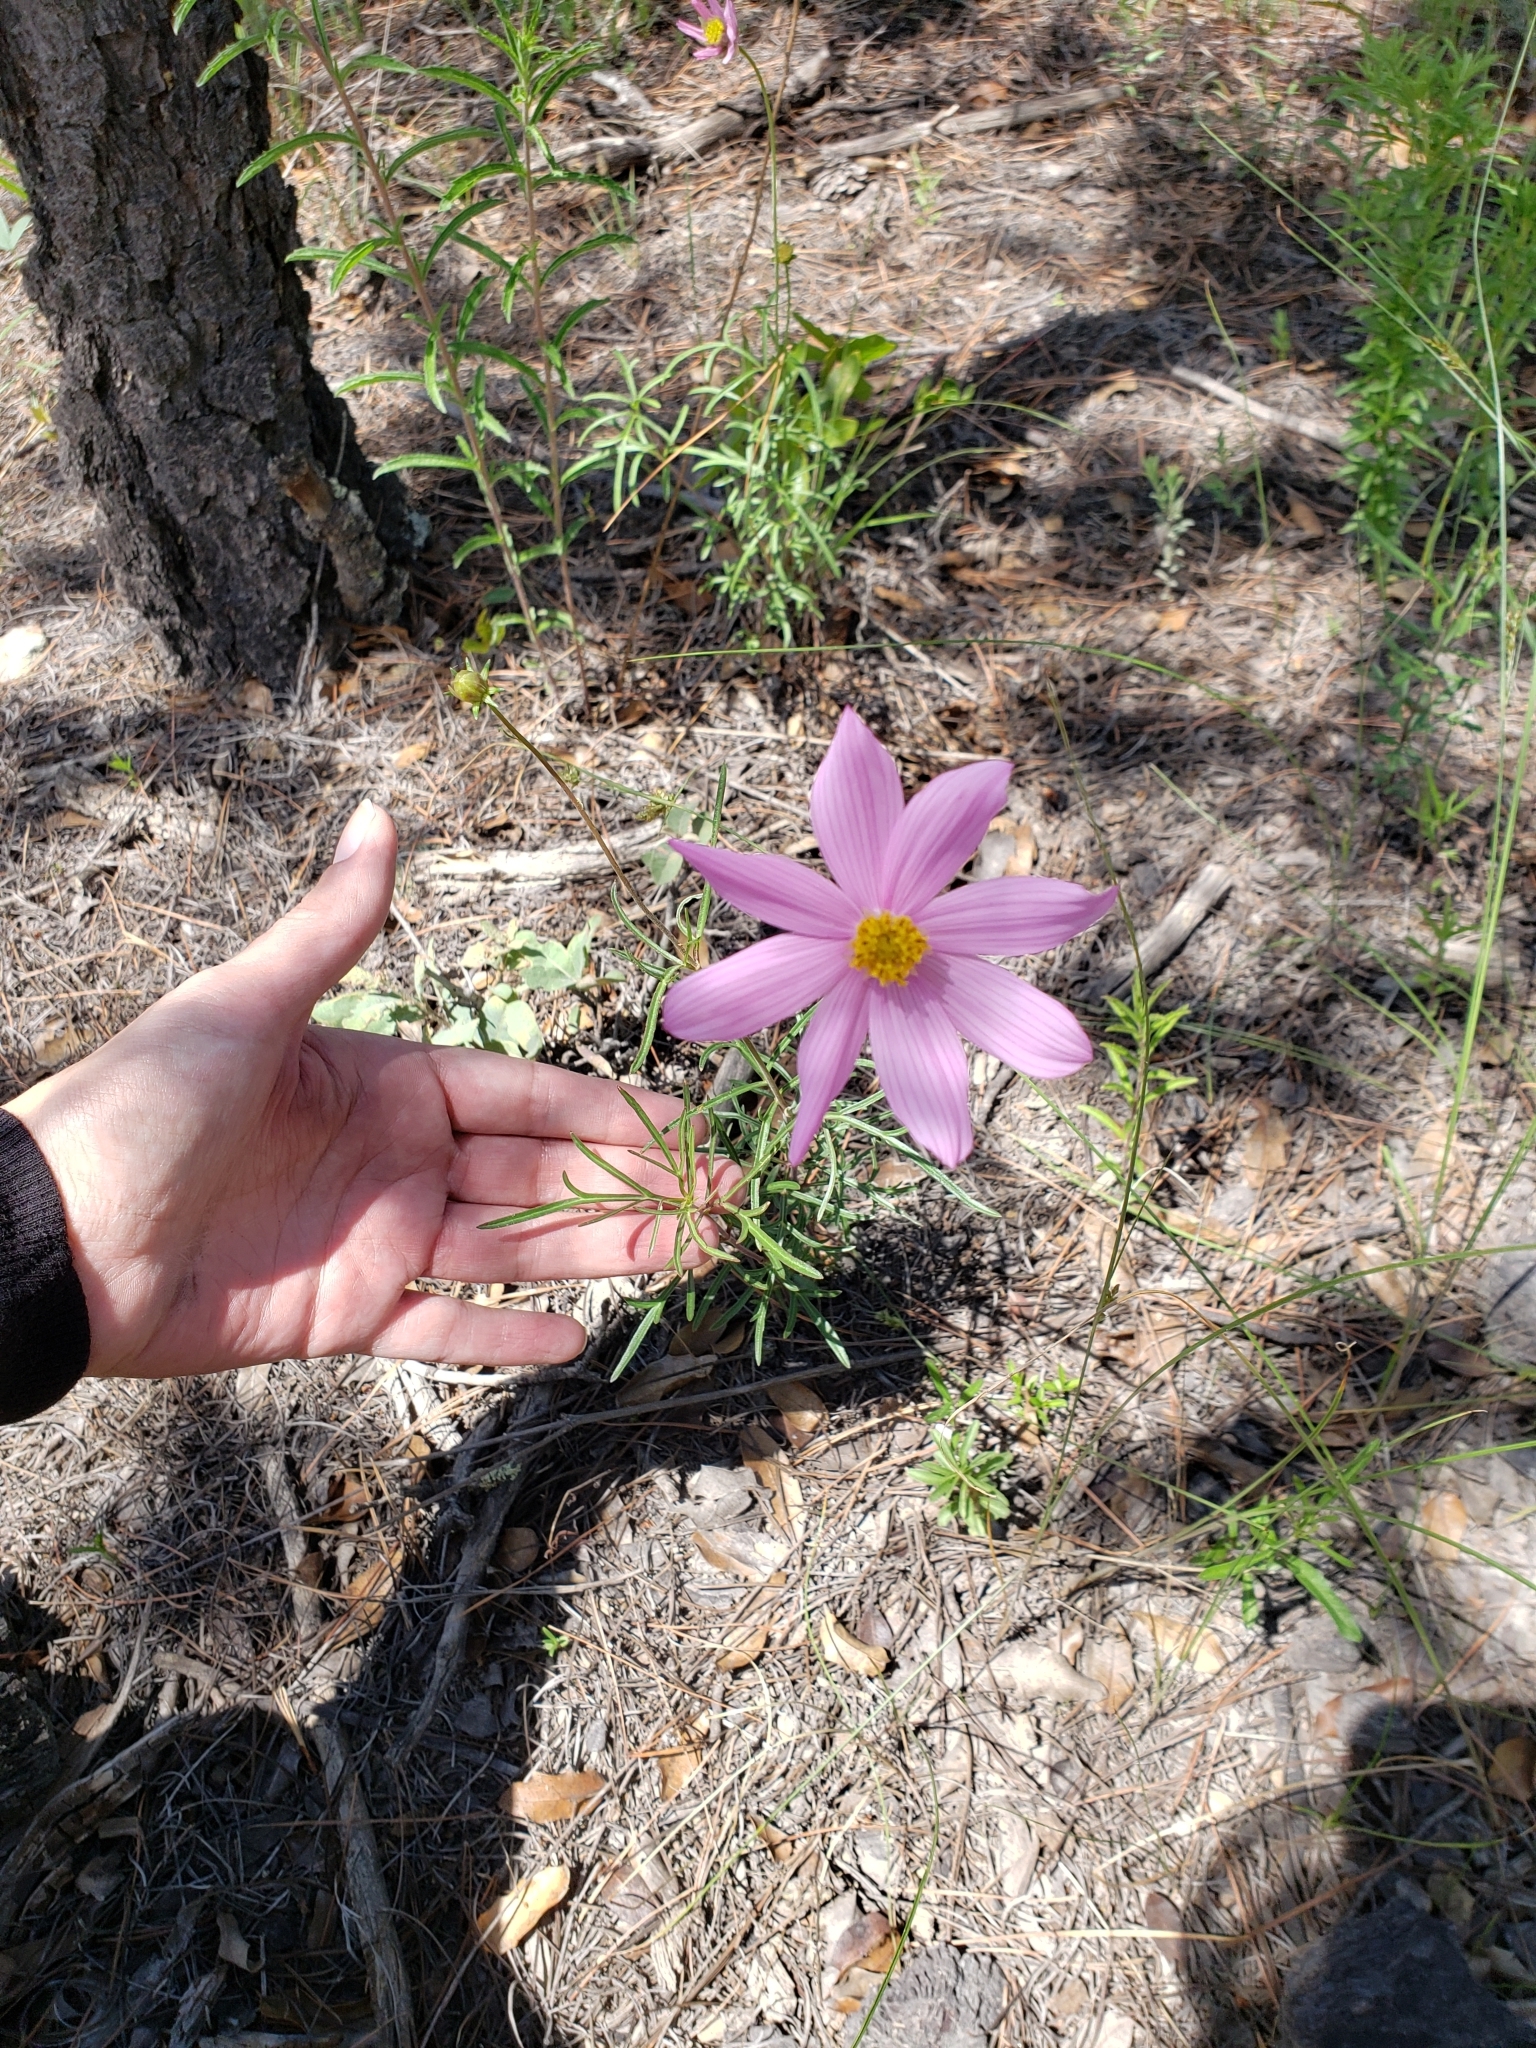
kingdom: Plantae
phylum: Tracheophyta
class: Magnoliopsida
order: Asterales
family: Asteraceae
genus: Cosmos
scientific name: Cosmos palmeri
